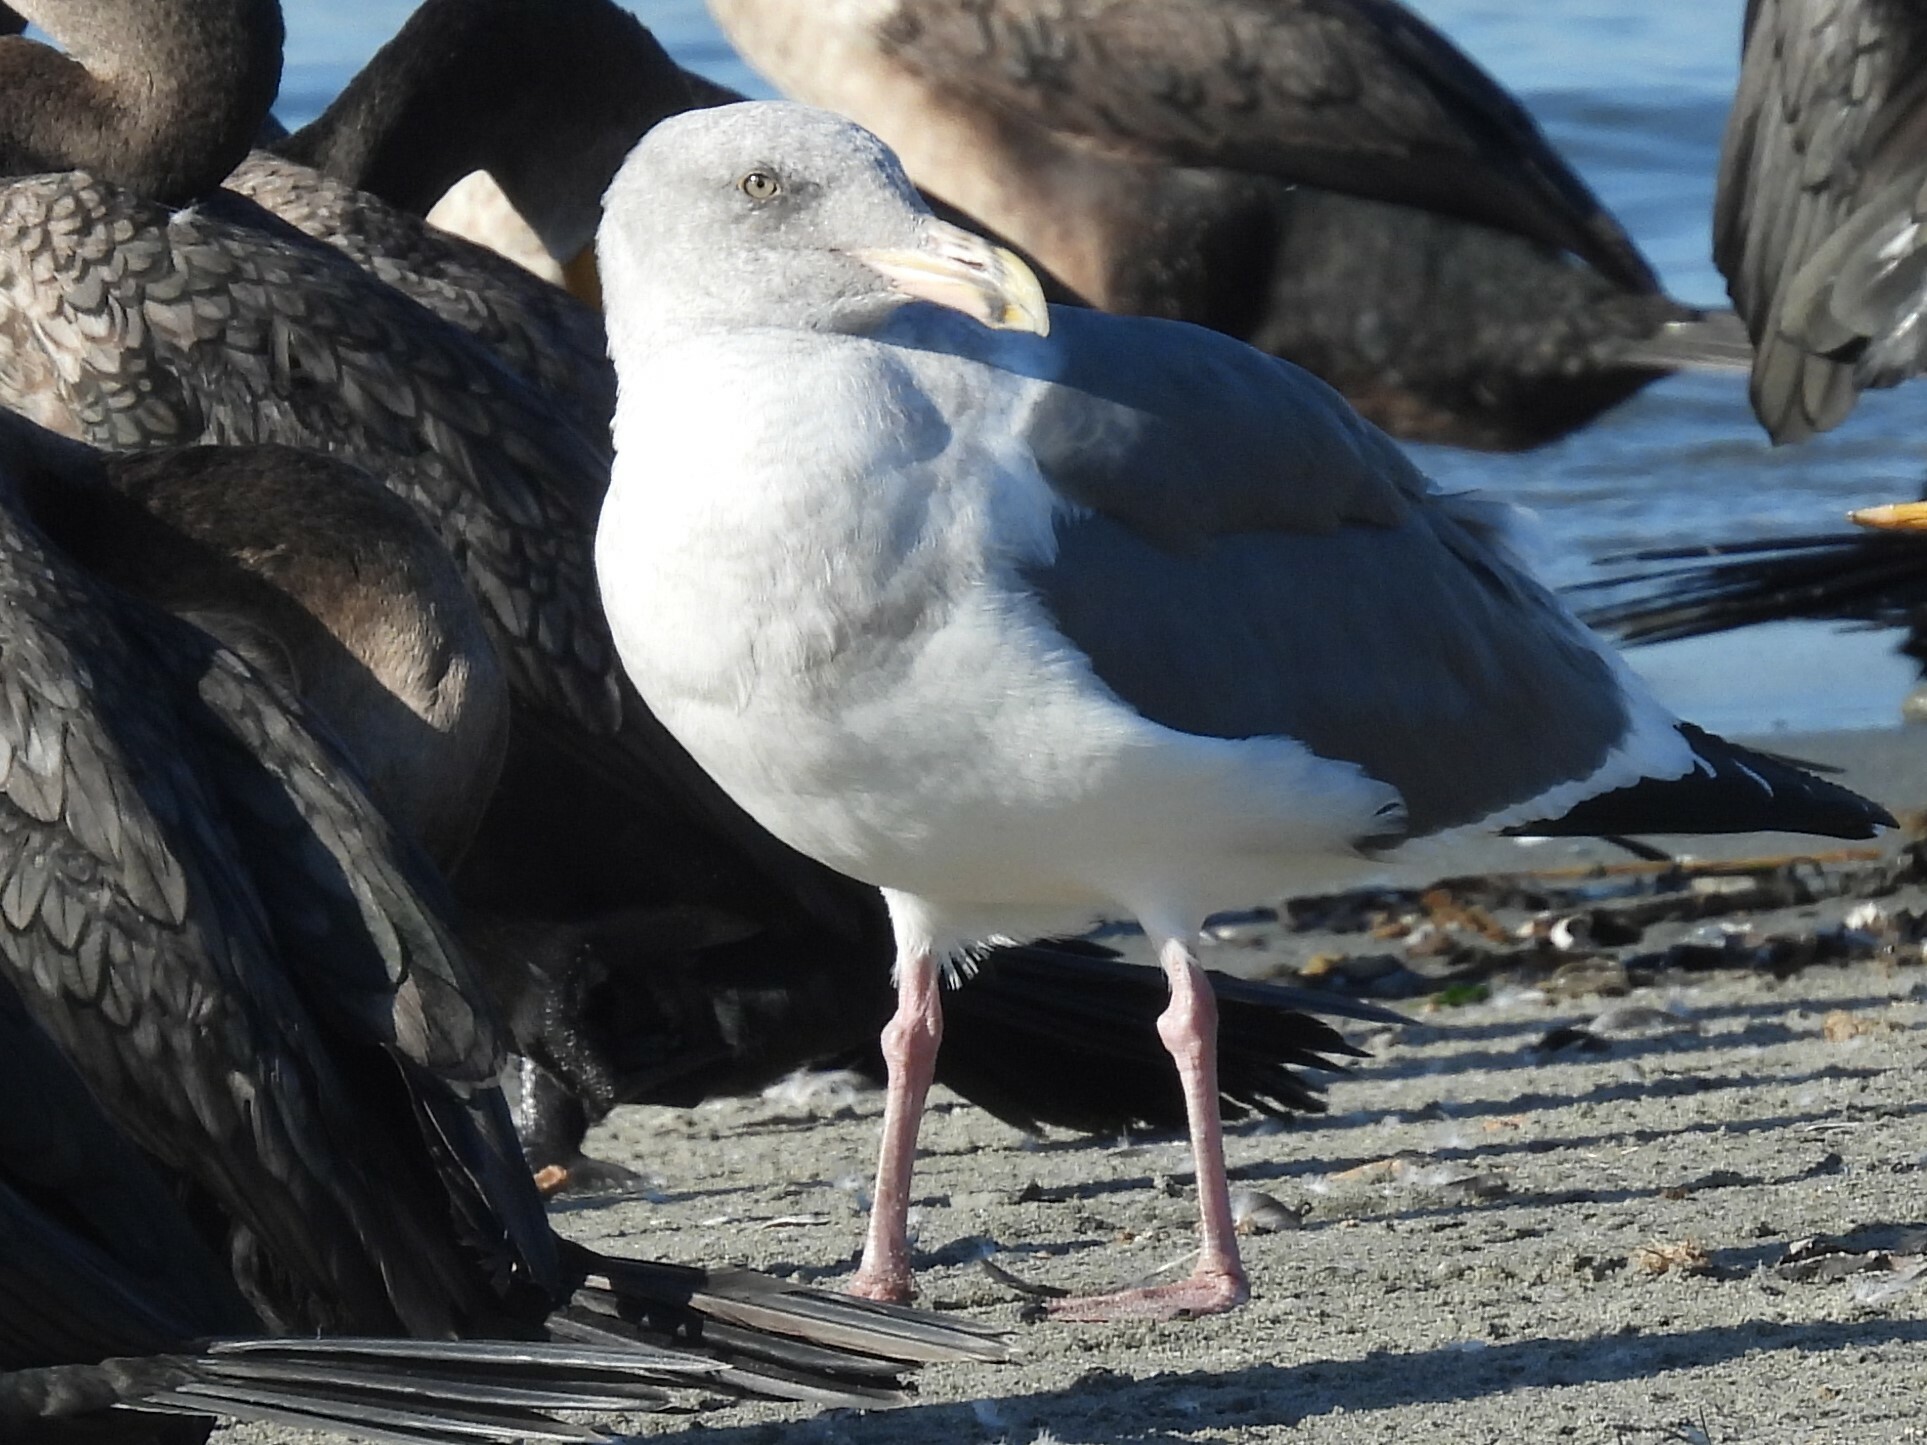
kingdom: Animalia
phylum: Chordata
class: Aves
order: Charadriiformes
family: Laridae
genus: Larus
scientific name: Larus occidentalis
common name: Western gull
